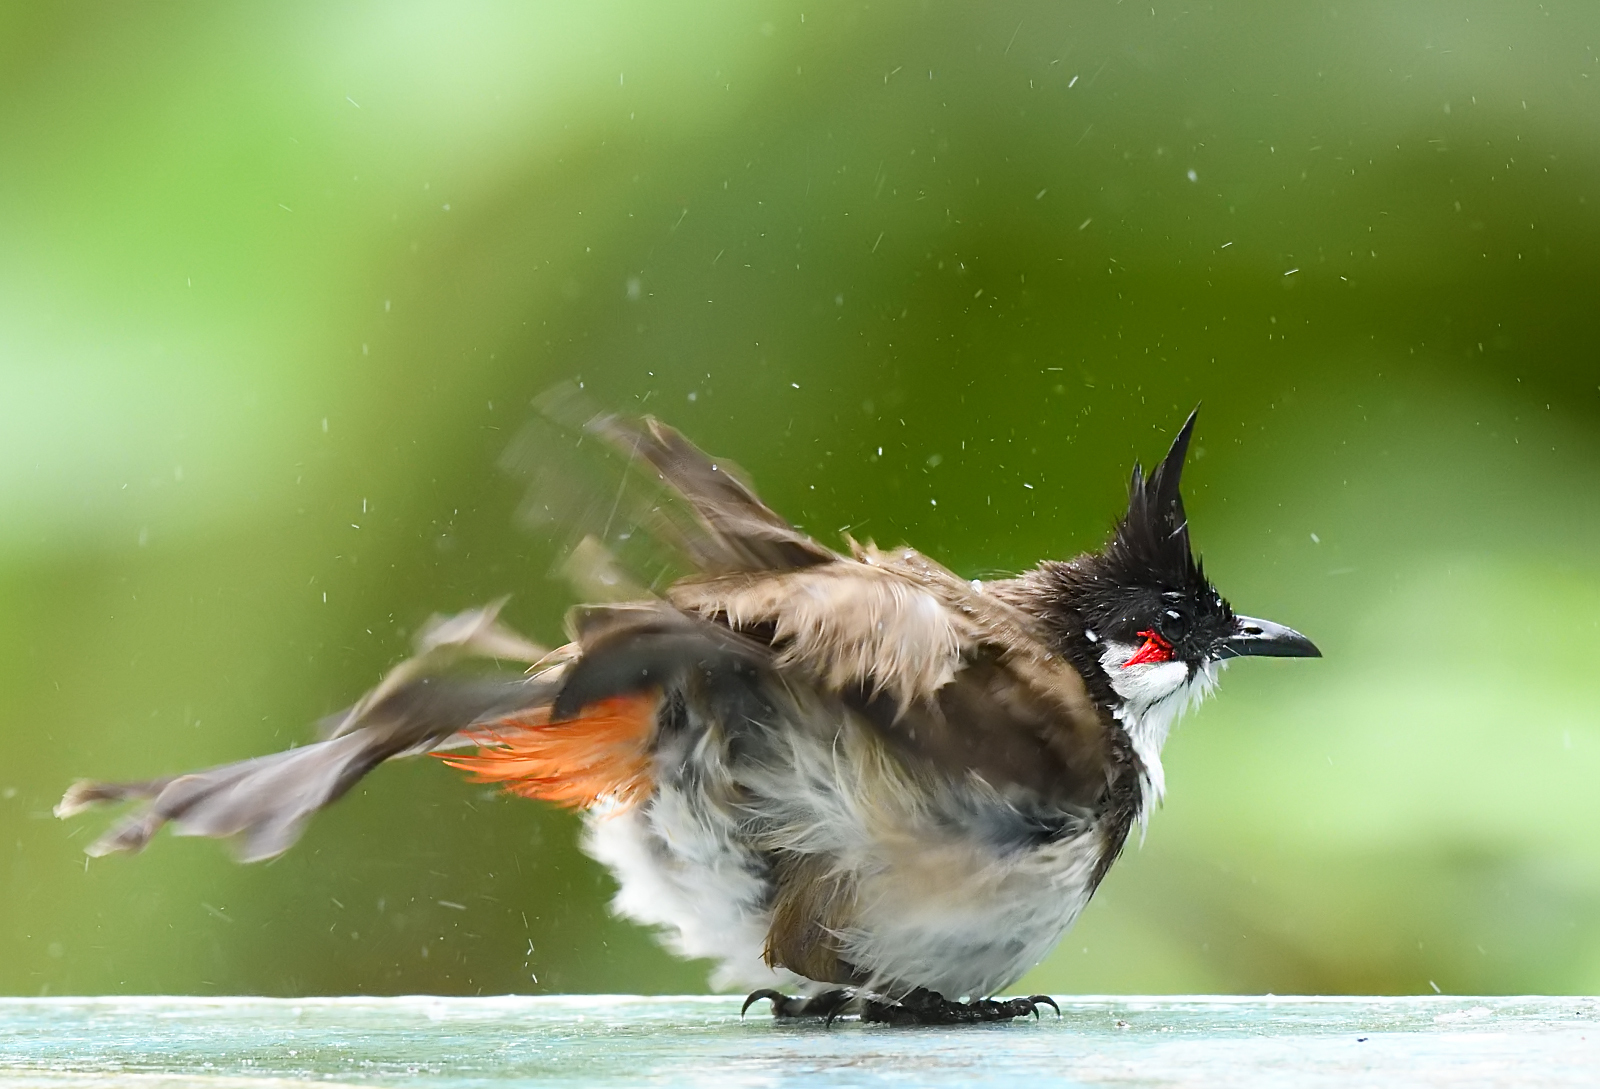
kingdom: Animalia
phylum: Chordata
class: Aves
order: Passeriformes
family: Pycnonotidae
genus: Pycnonotus
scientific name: Pycnonotus jocosus
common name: Red-whiskered bulbul
